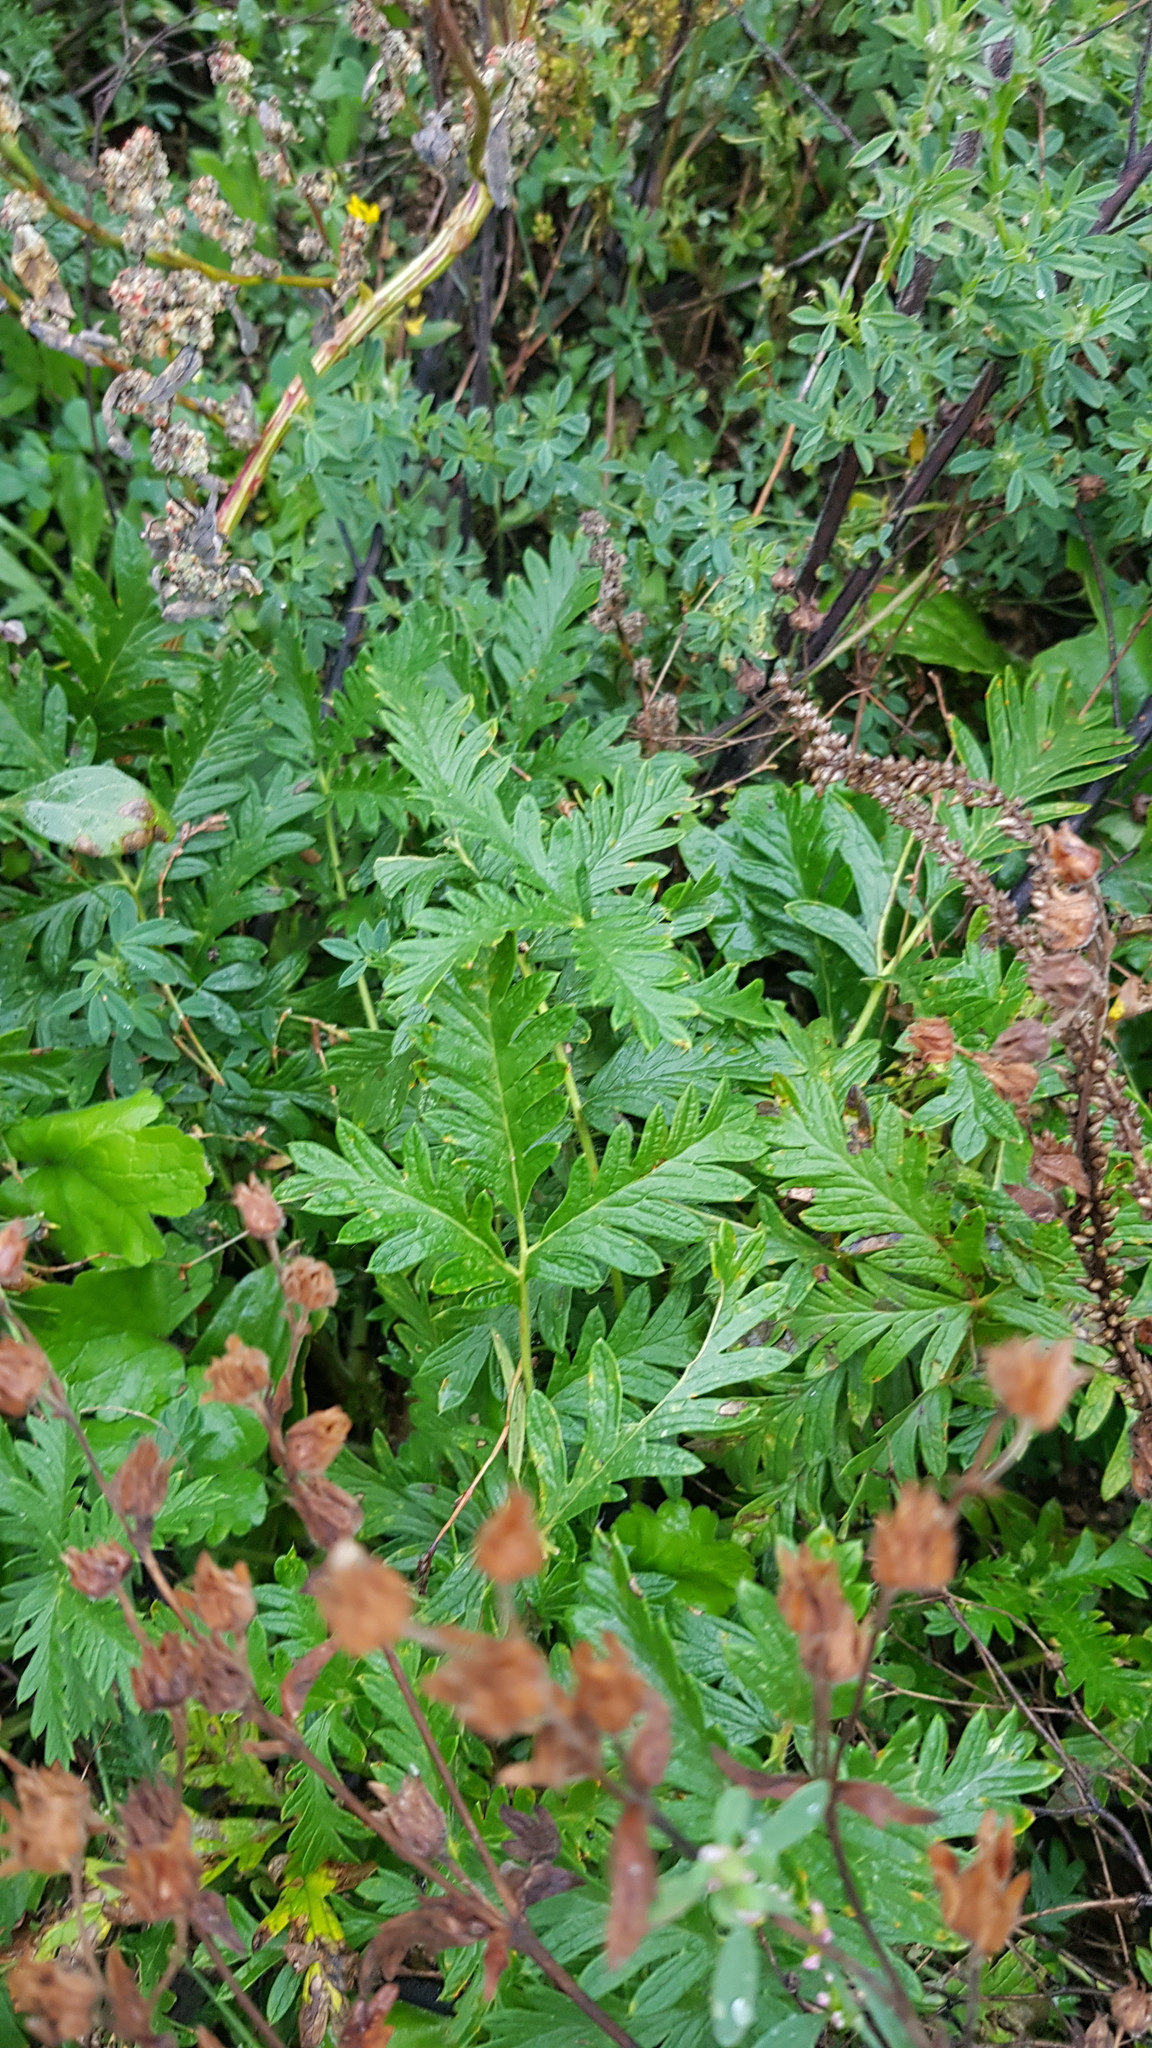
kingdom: Plantae
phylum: Tracheophyta
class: Magnoliopsida
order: Rosales
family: Rosaceae
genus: Potentilla
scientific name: Potentilla tanacetifolia
